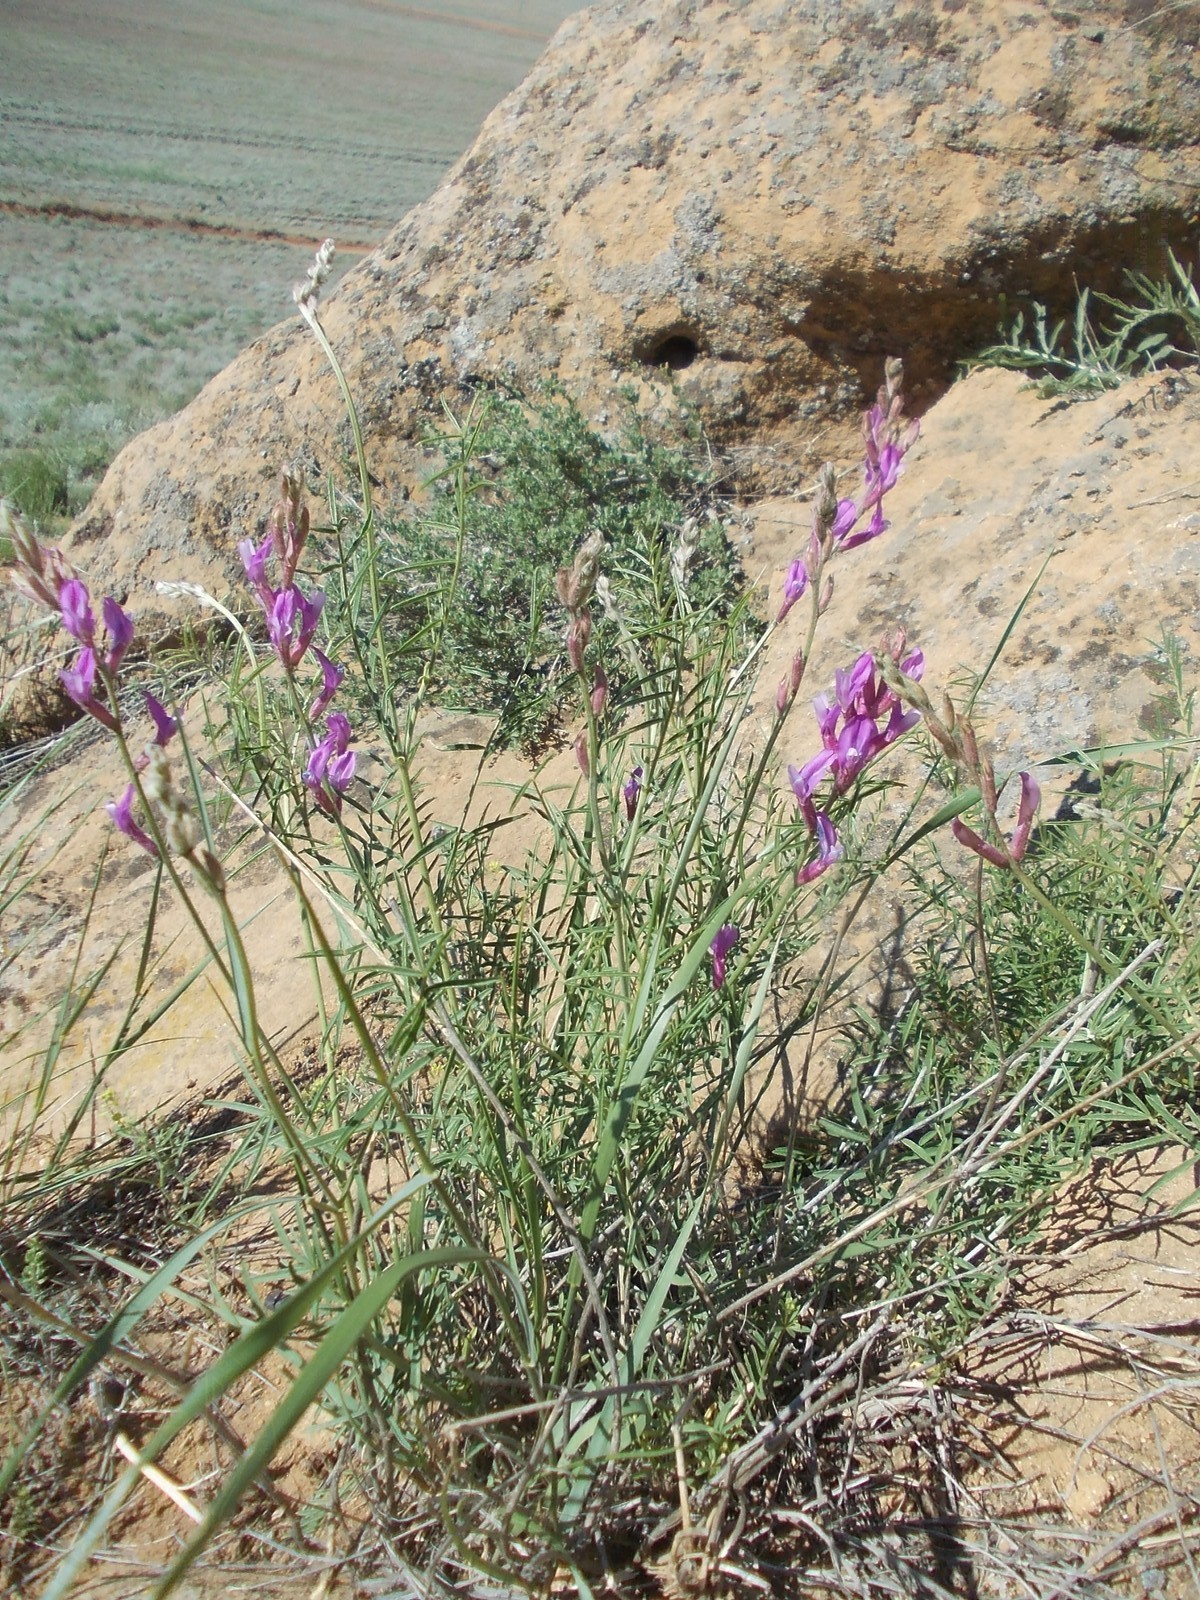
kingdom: Plantae
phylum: Tracheophyta
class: Magnoliopsida
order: Fabales
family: Fabaceae
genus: Astragalus
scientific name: Astragalus varius
